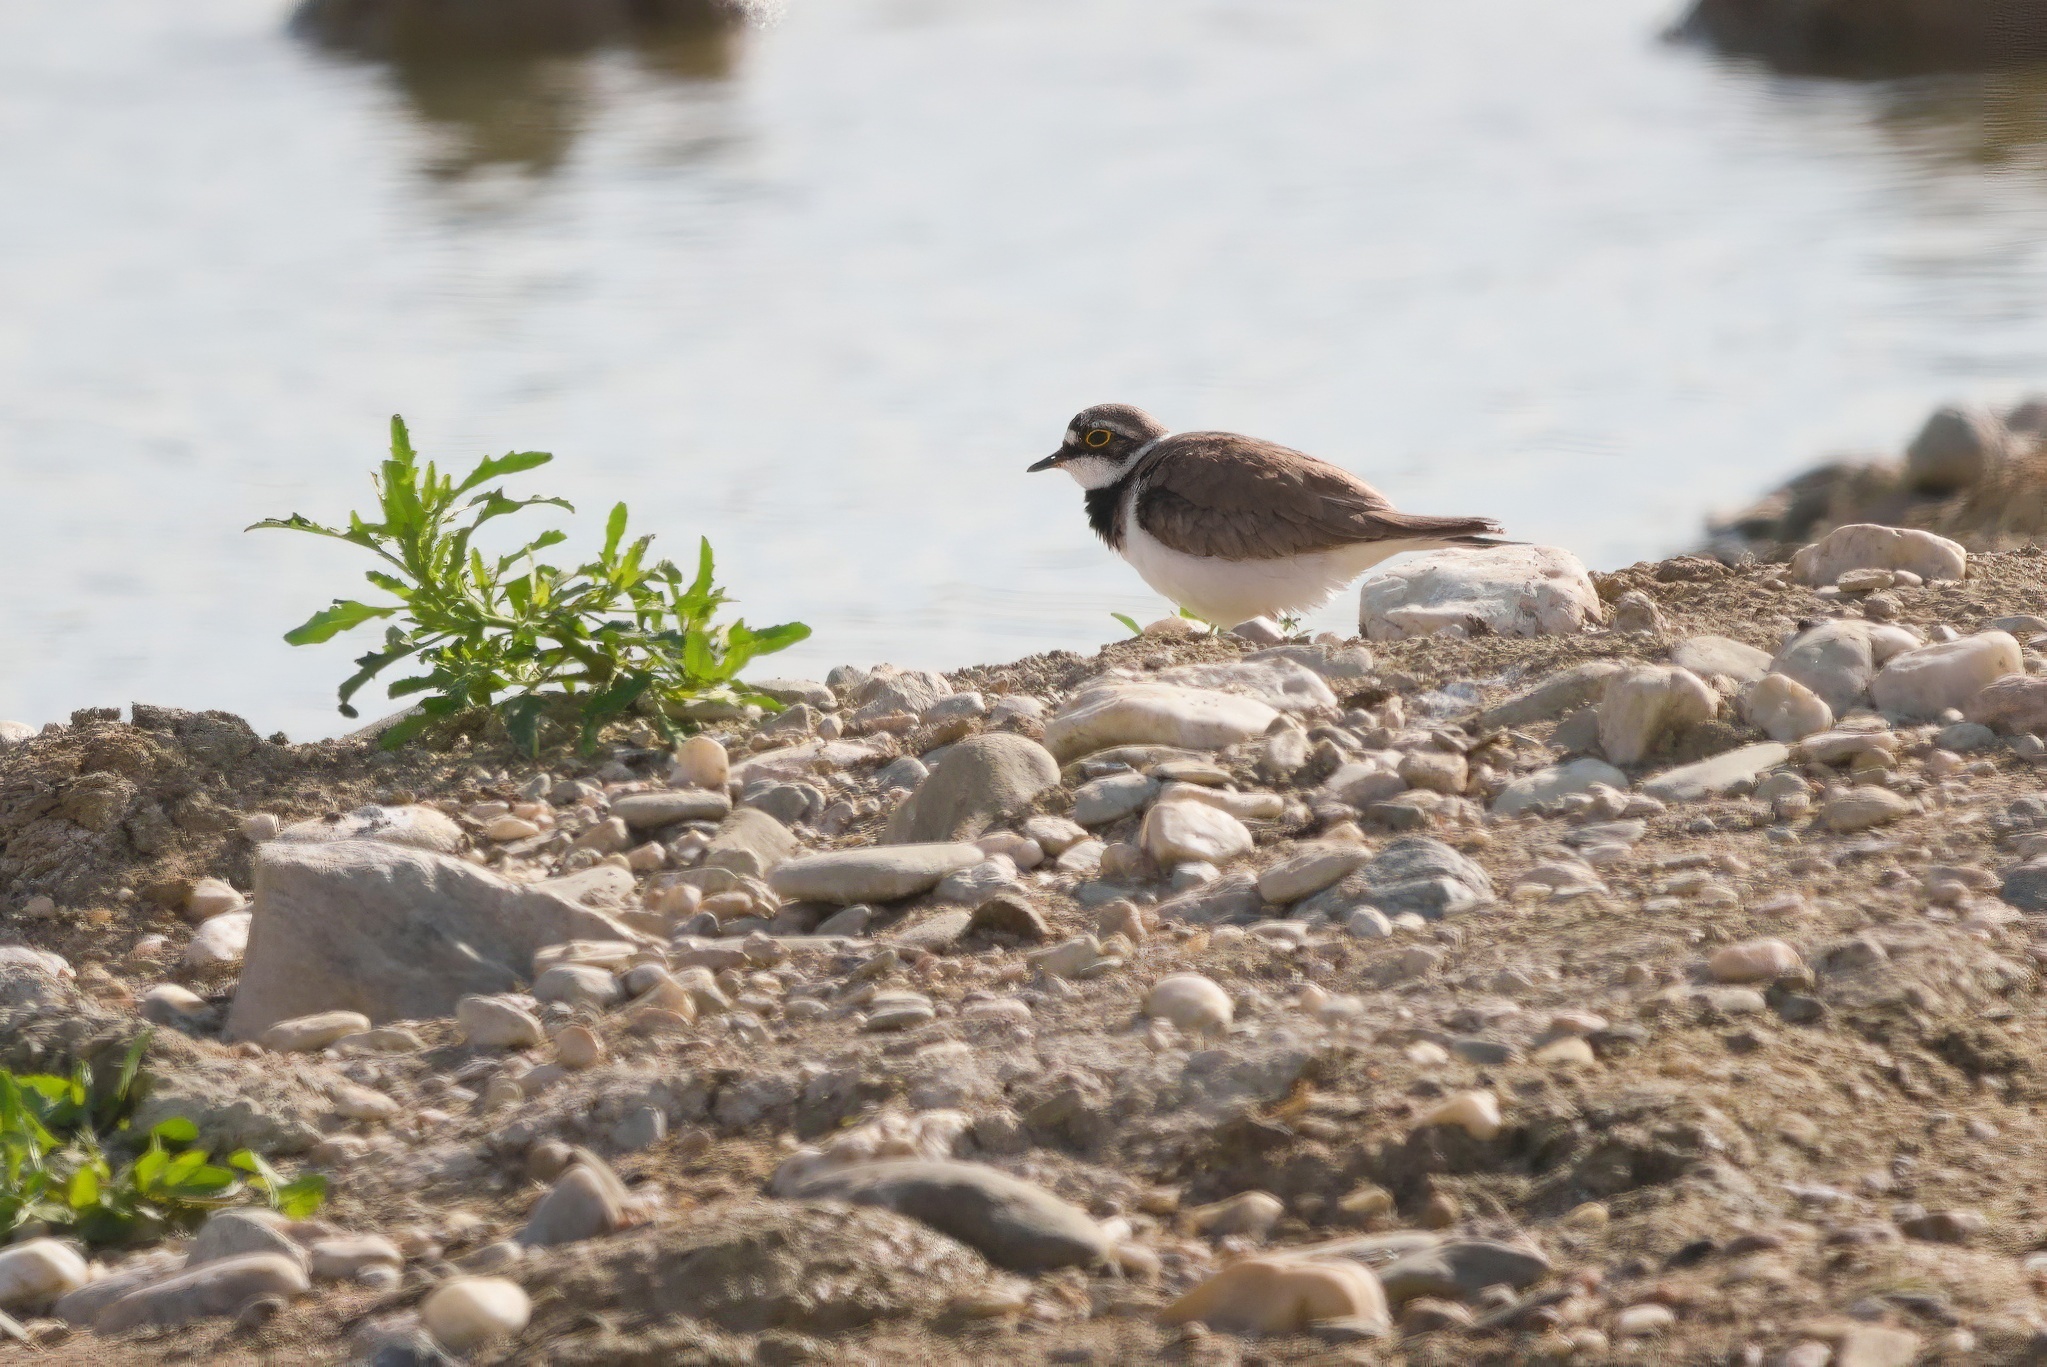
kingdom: Animalia
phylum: Chordata
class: Aves
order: Charadriiformes
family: Charadriidae
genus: Charadrius
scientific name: Charadrius dubius
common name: Little ringed plover
